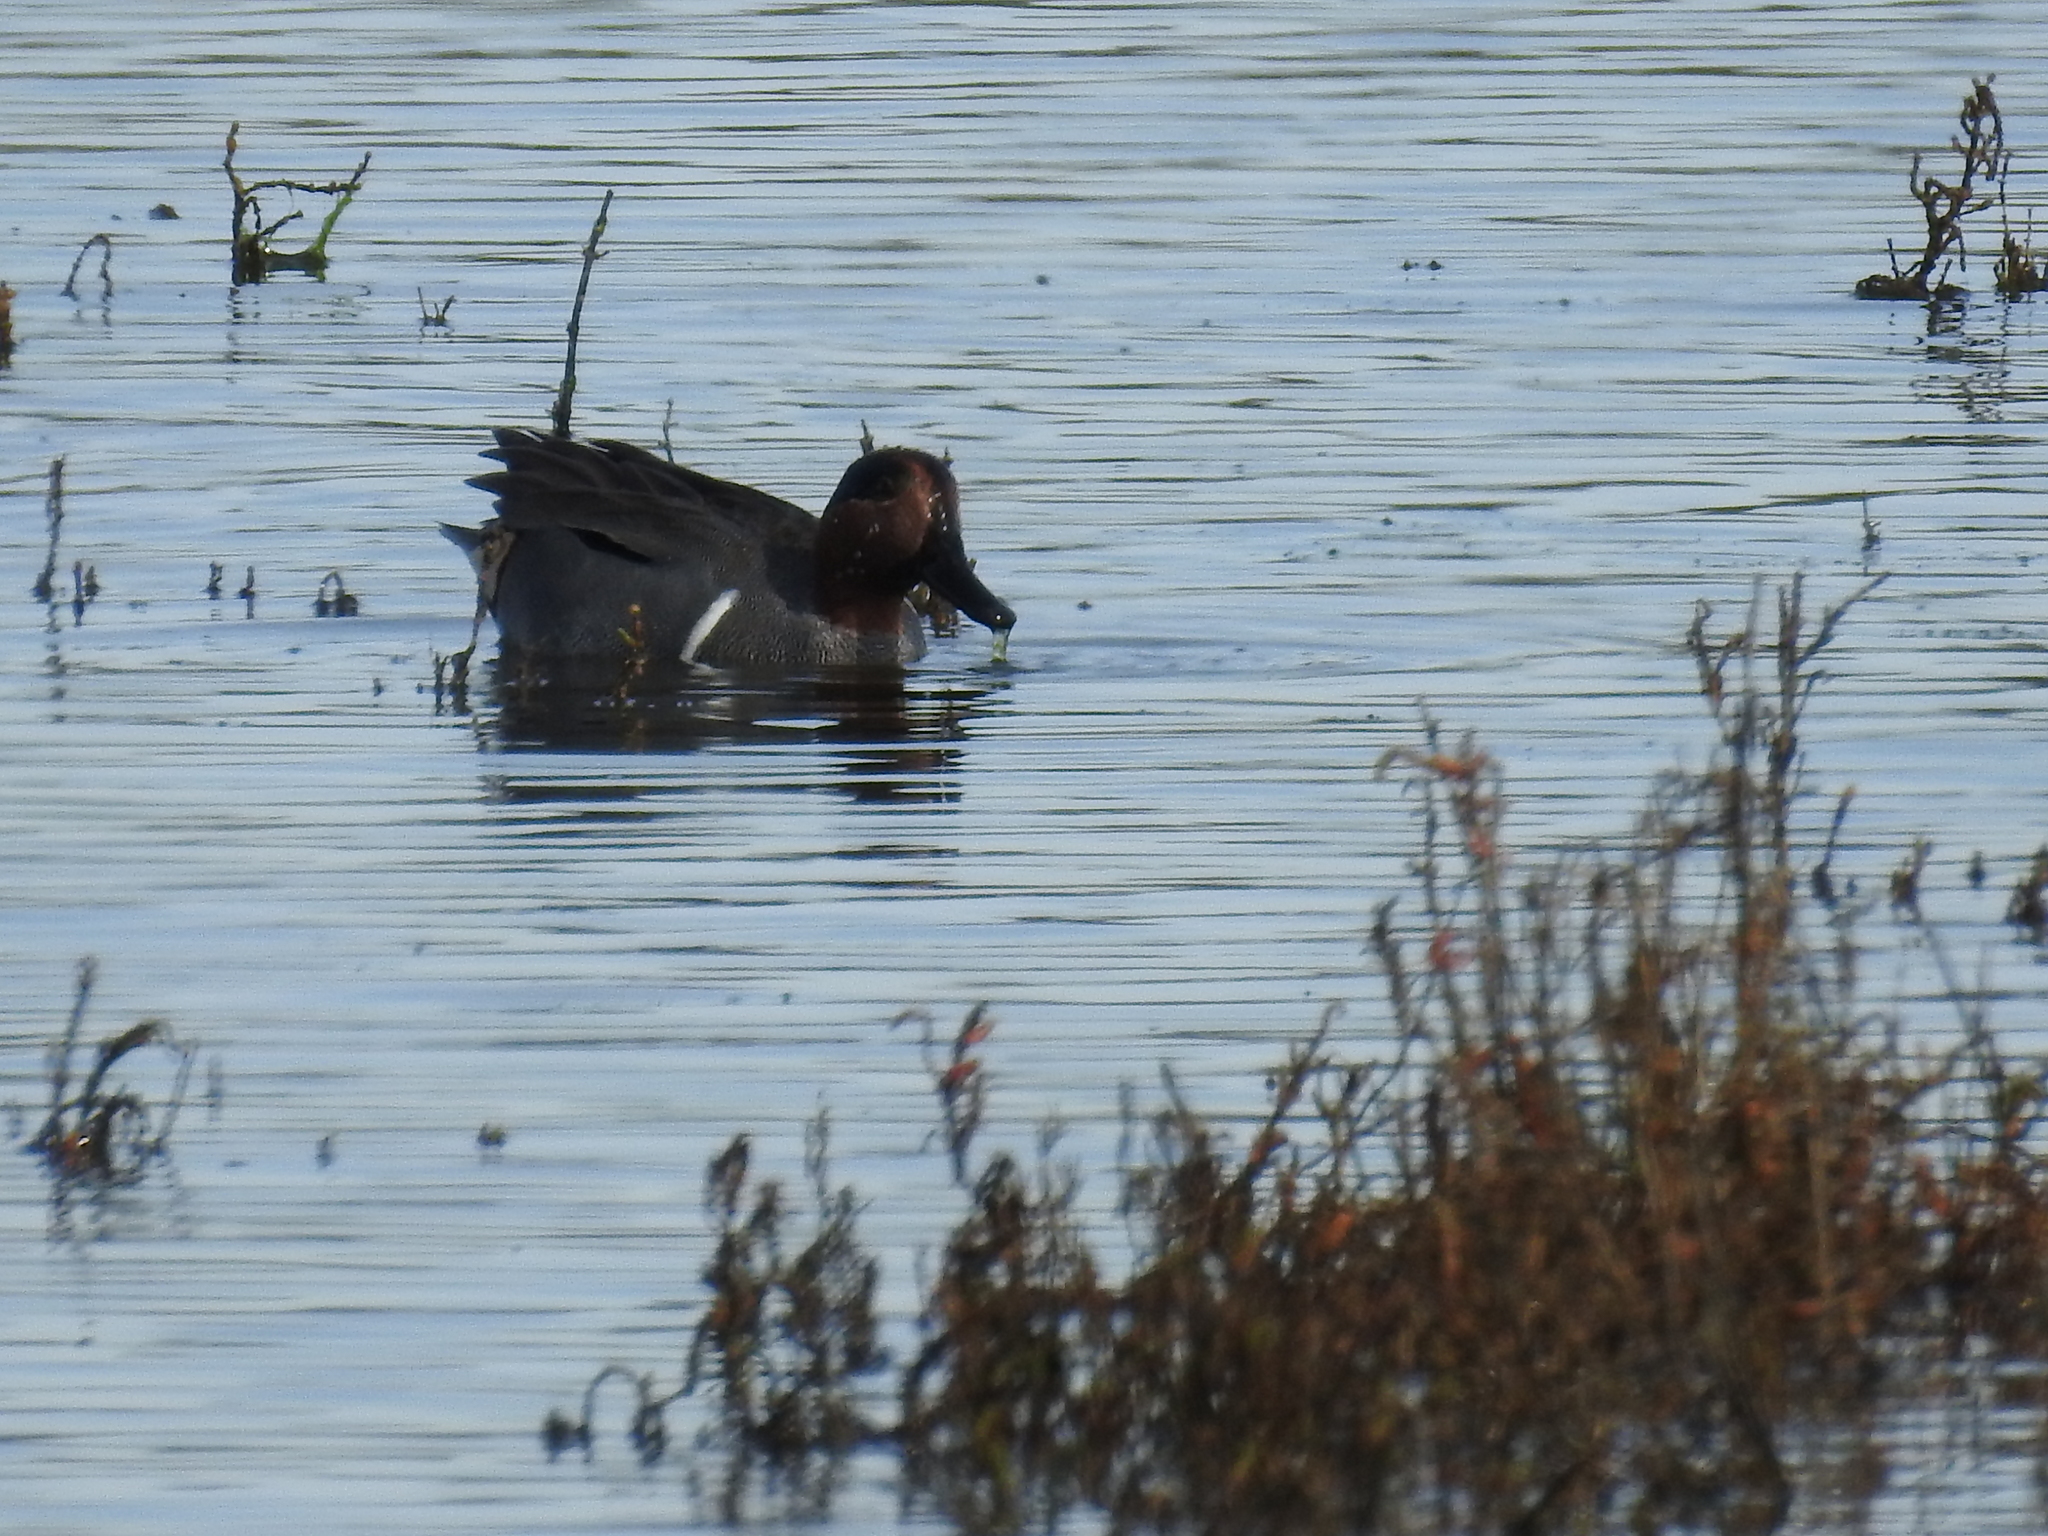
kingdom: Animalia
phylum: Chordata
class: Aves
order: Anseriformes
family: Anatidae
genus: Anas
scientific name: Anas crecca
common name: Eurasian teal
